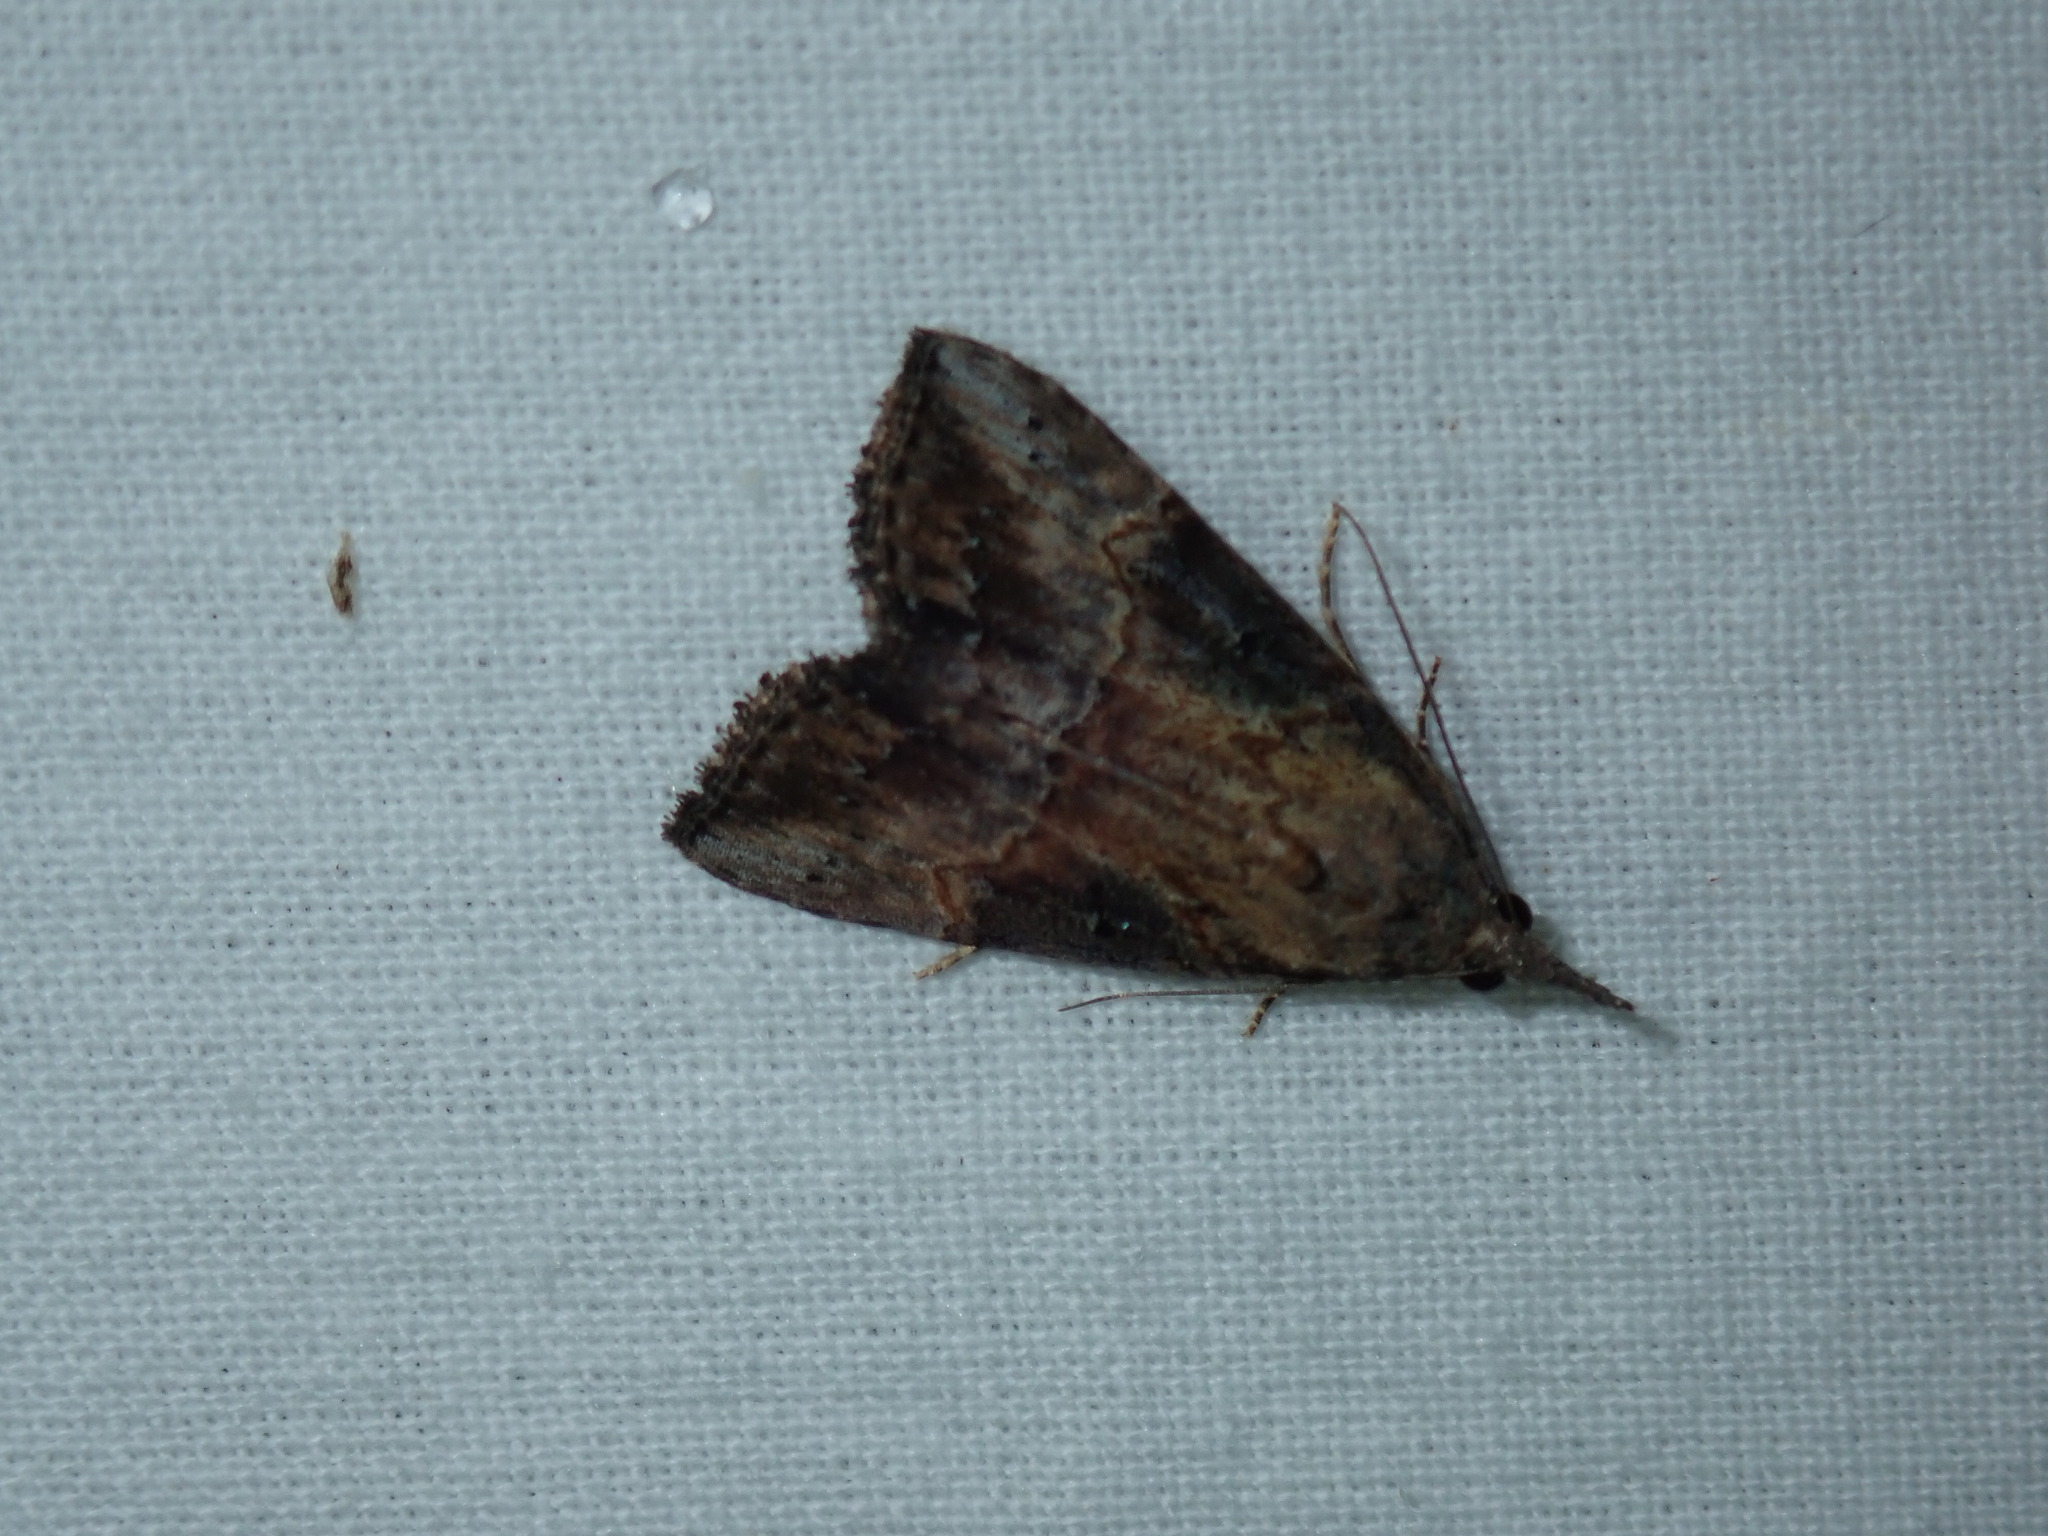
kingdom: Animalia
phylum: Arthropoda
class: Insecta
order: Lepidoptera
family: Erebidae
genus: Hypena
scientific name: Hypena scabra
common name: Green cloverworm
